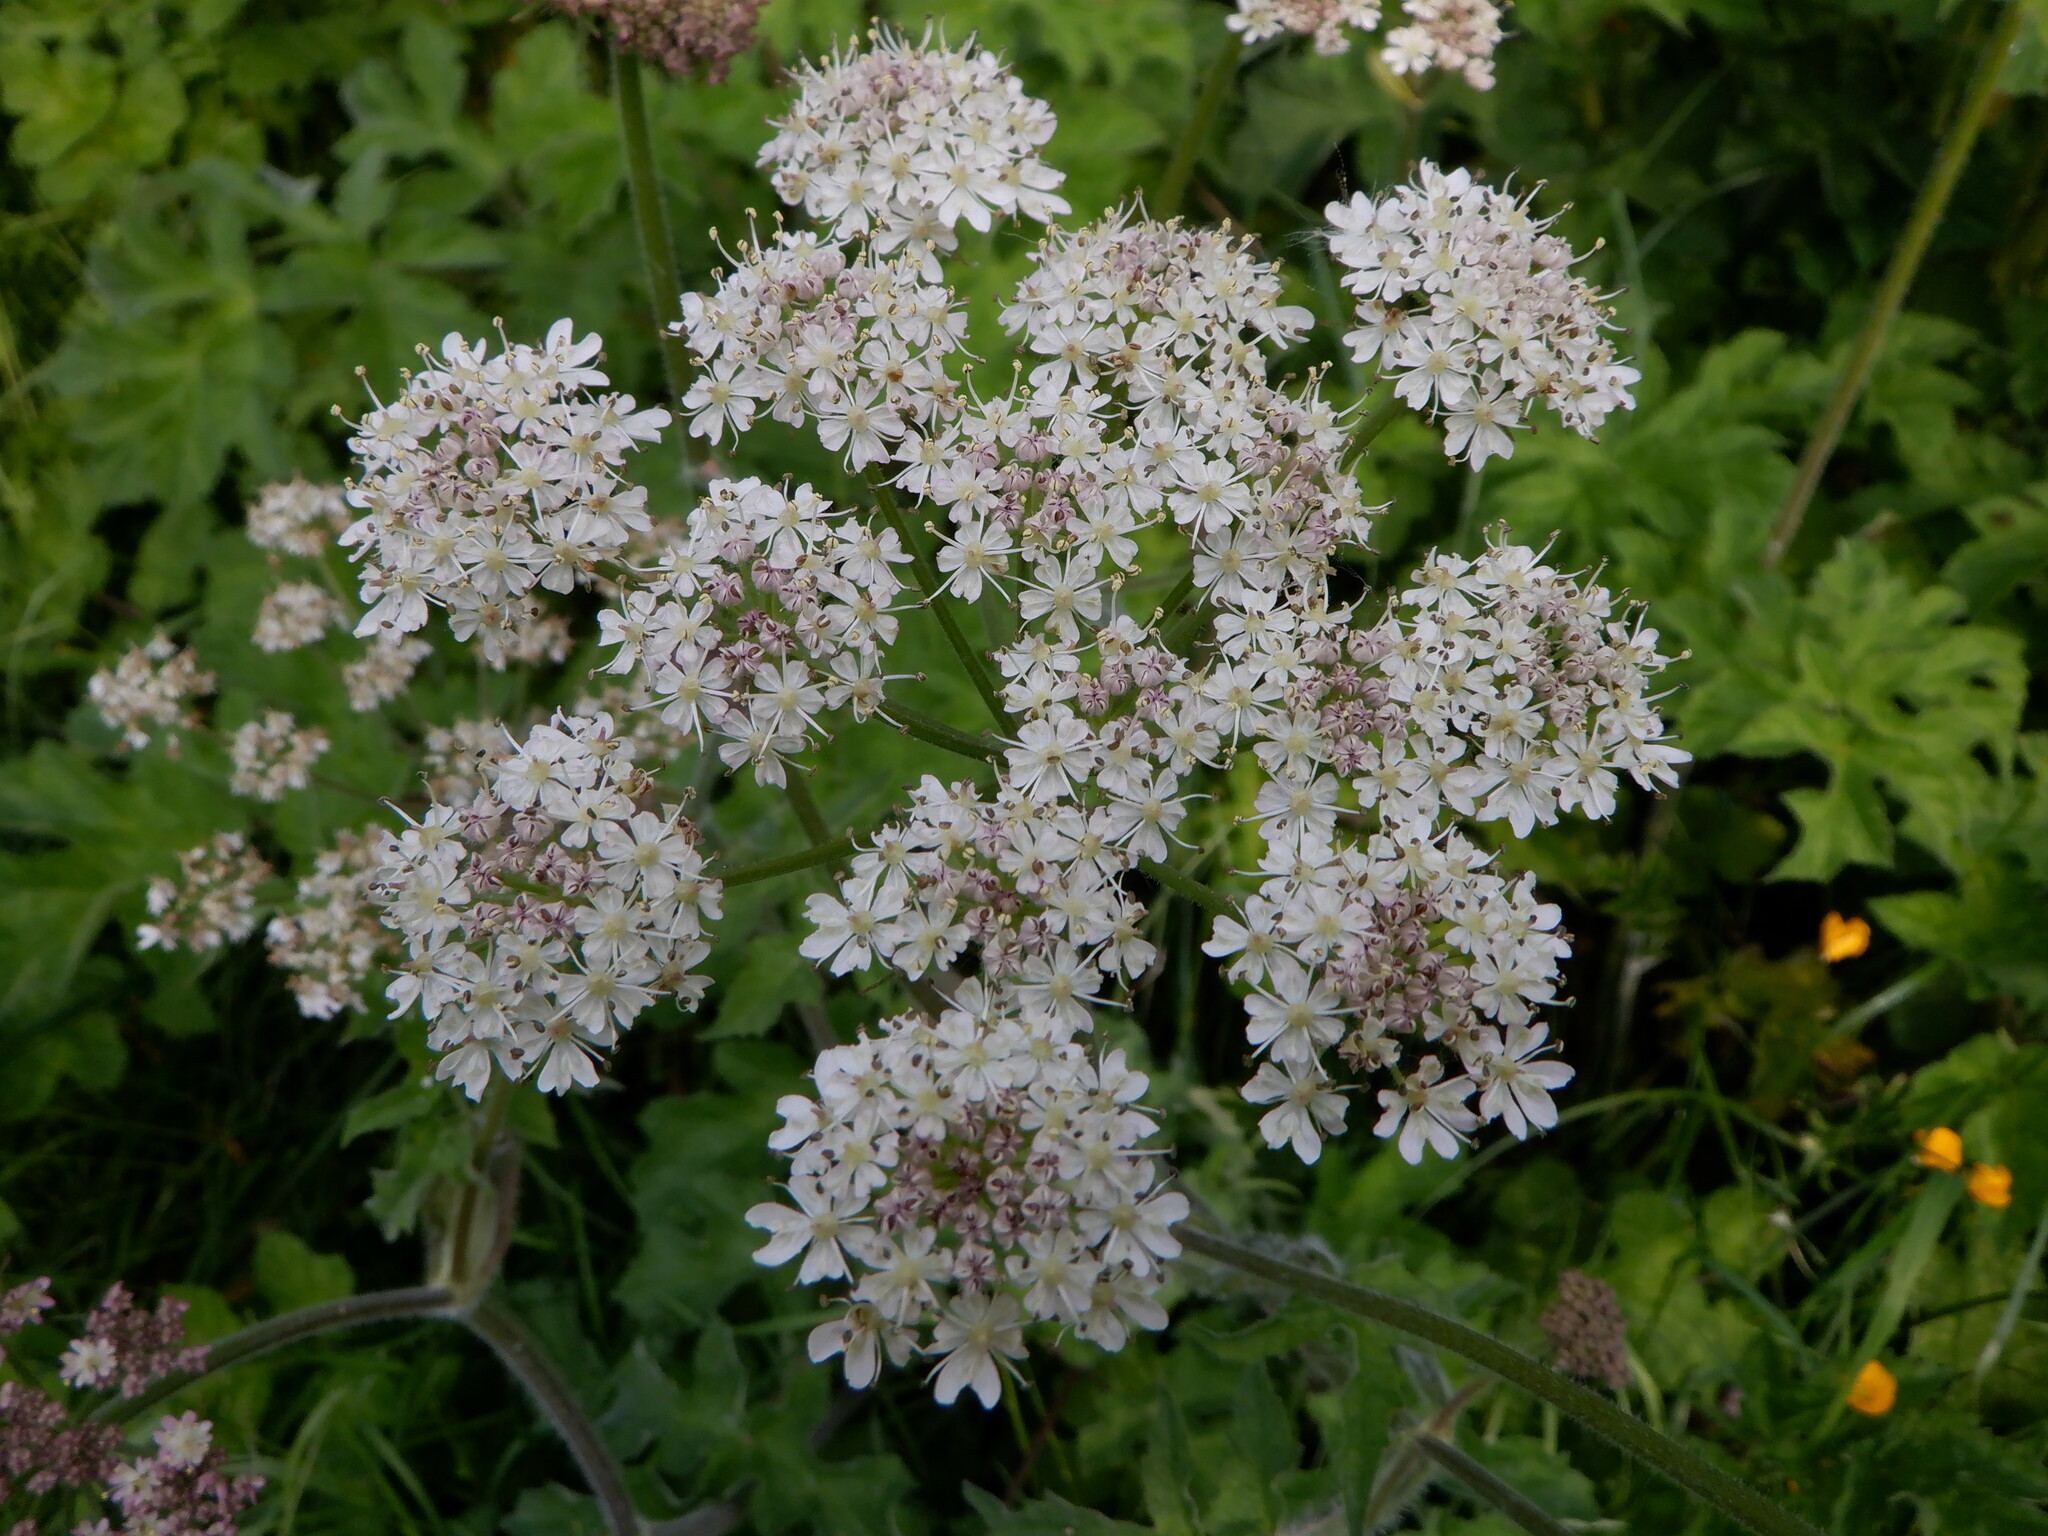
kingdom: Plantae
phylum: Tracheophyta
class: Magnoliopsida
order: Apiales
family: Apiaceae
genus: Anthriscus
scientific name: Anthriscus sylvestris
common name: Cow parsley
